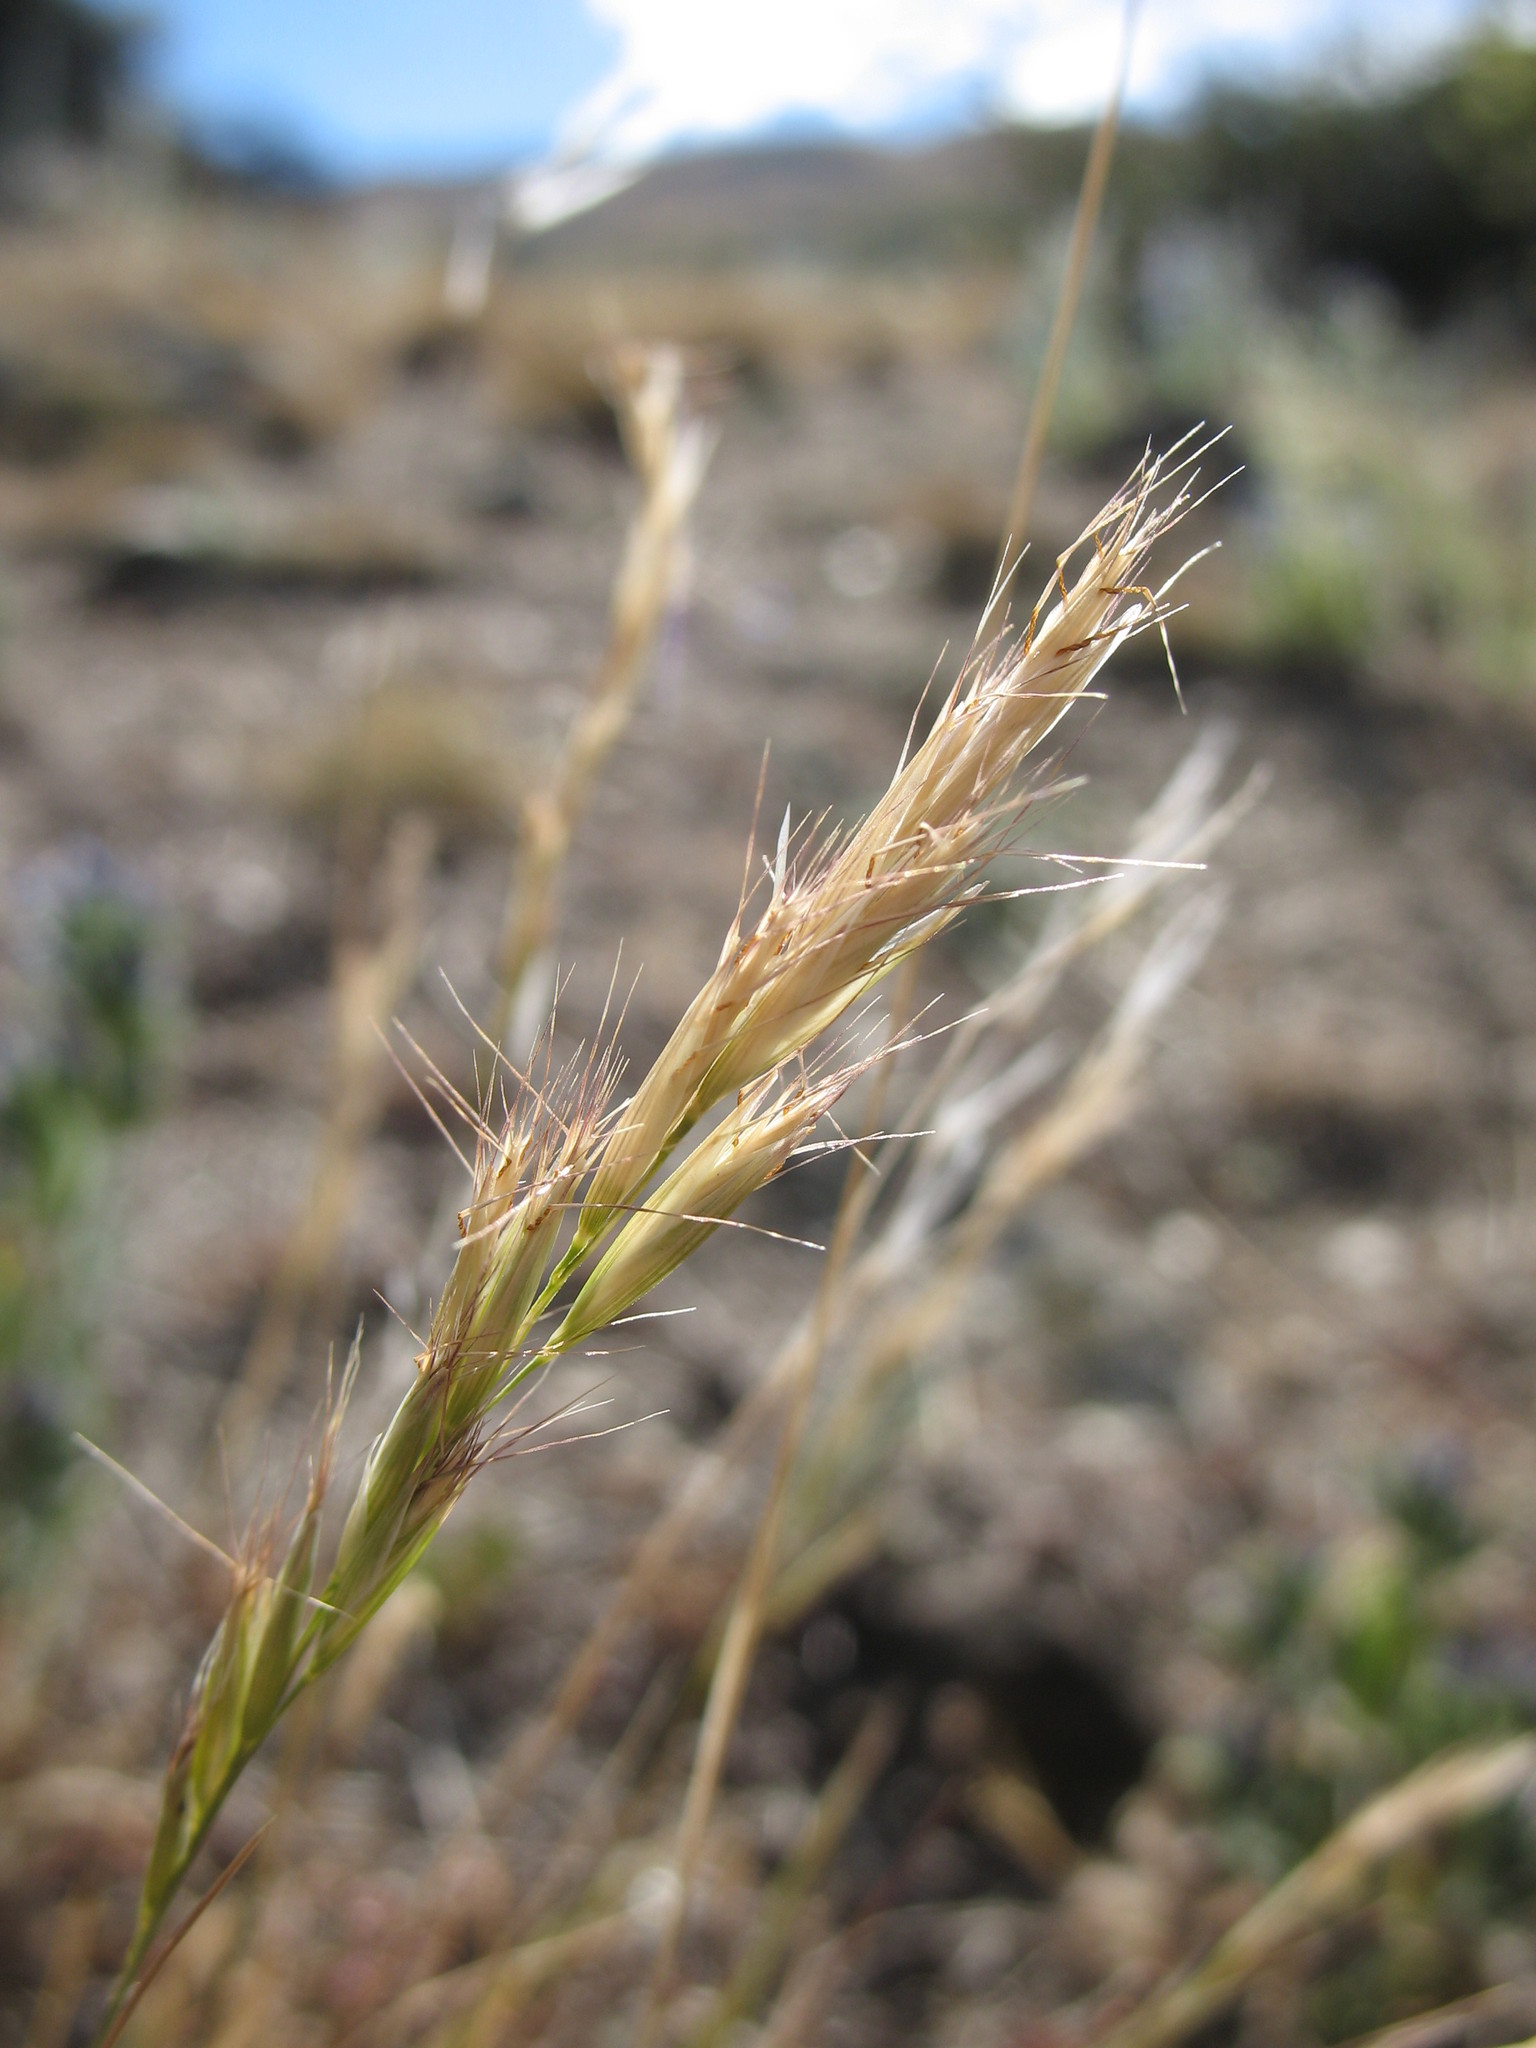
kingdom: Plantae
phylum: Tracheophyta
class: Liliopsida
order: Poales
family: Poaceae
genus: Rytidosperma
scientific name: Rytidosperma racemosum
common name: Wallaby-grass
